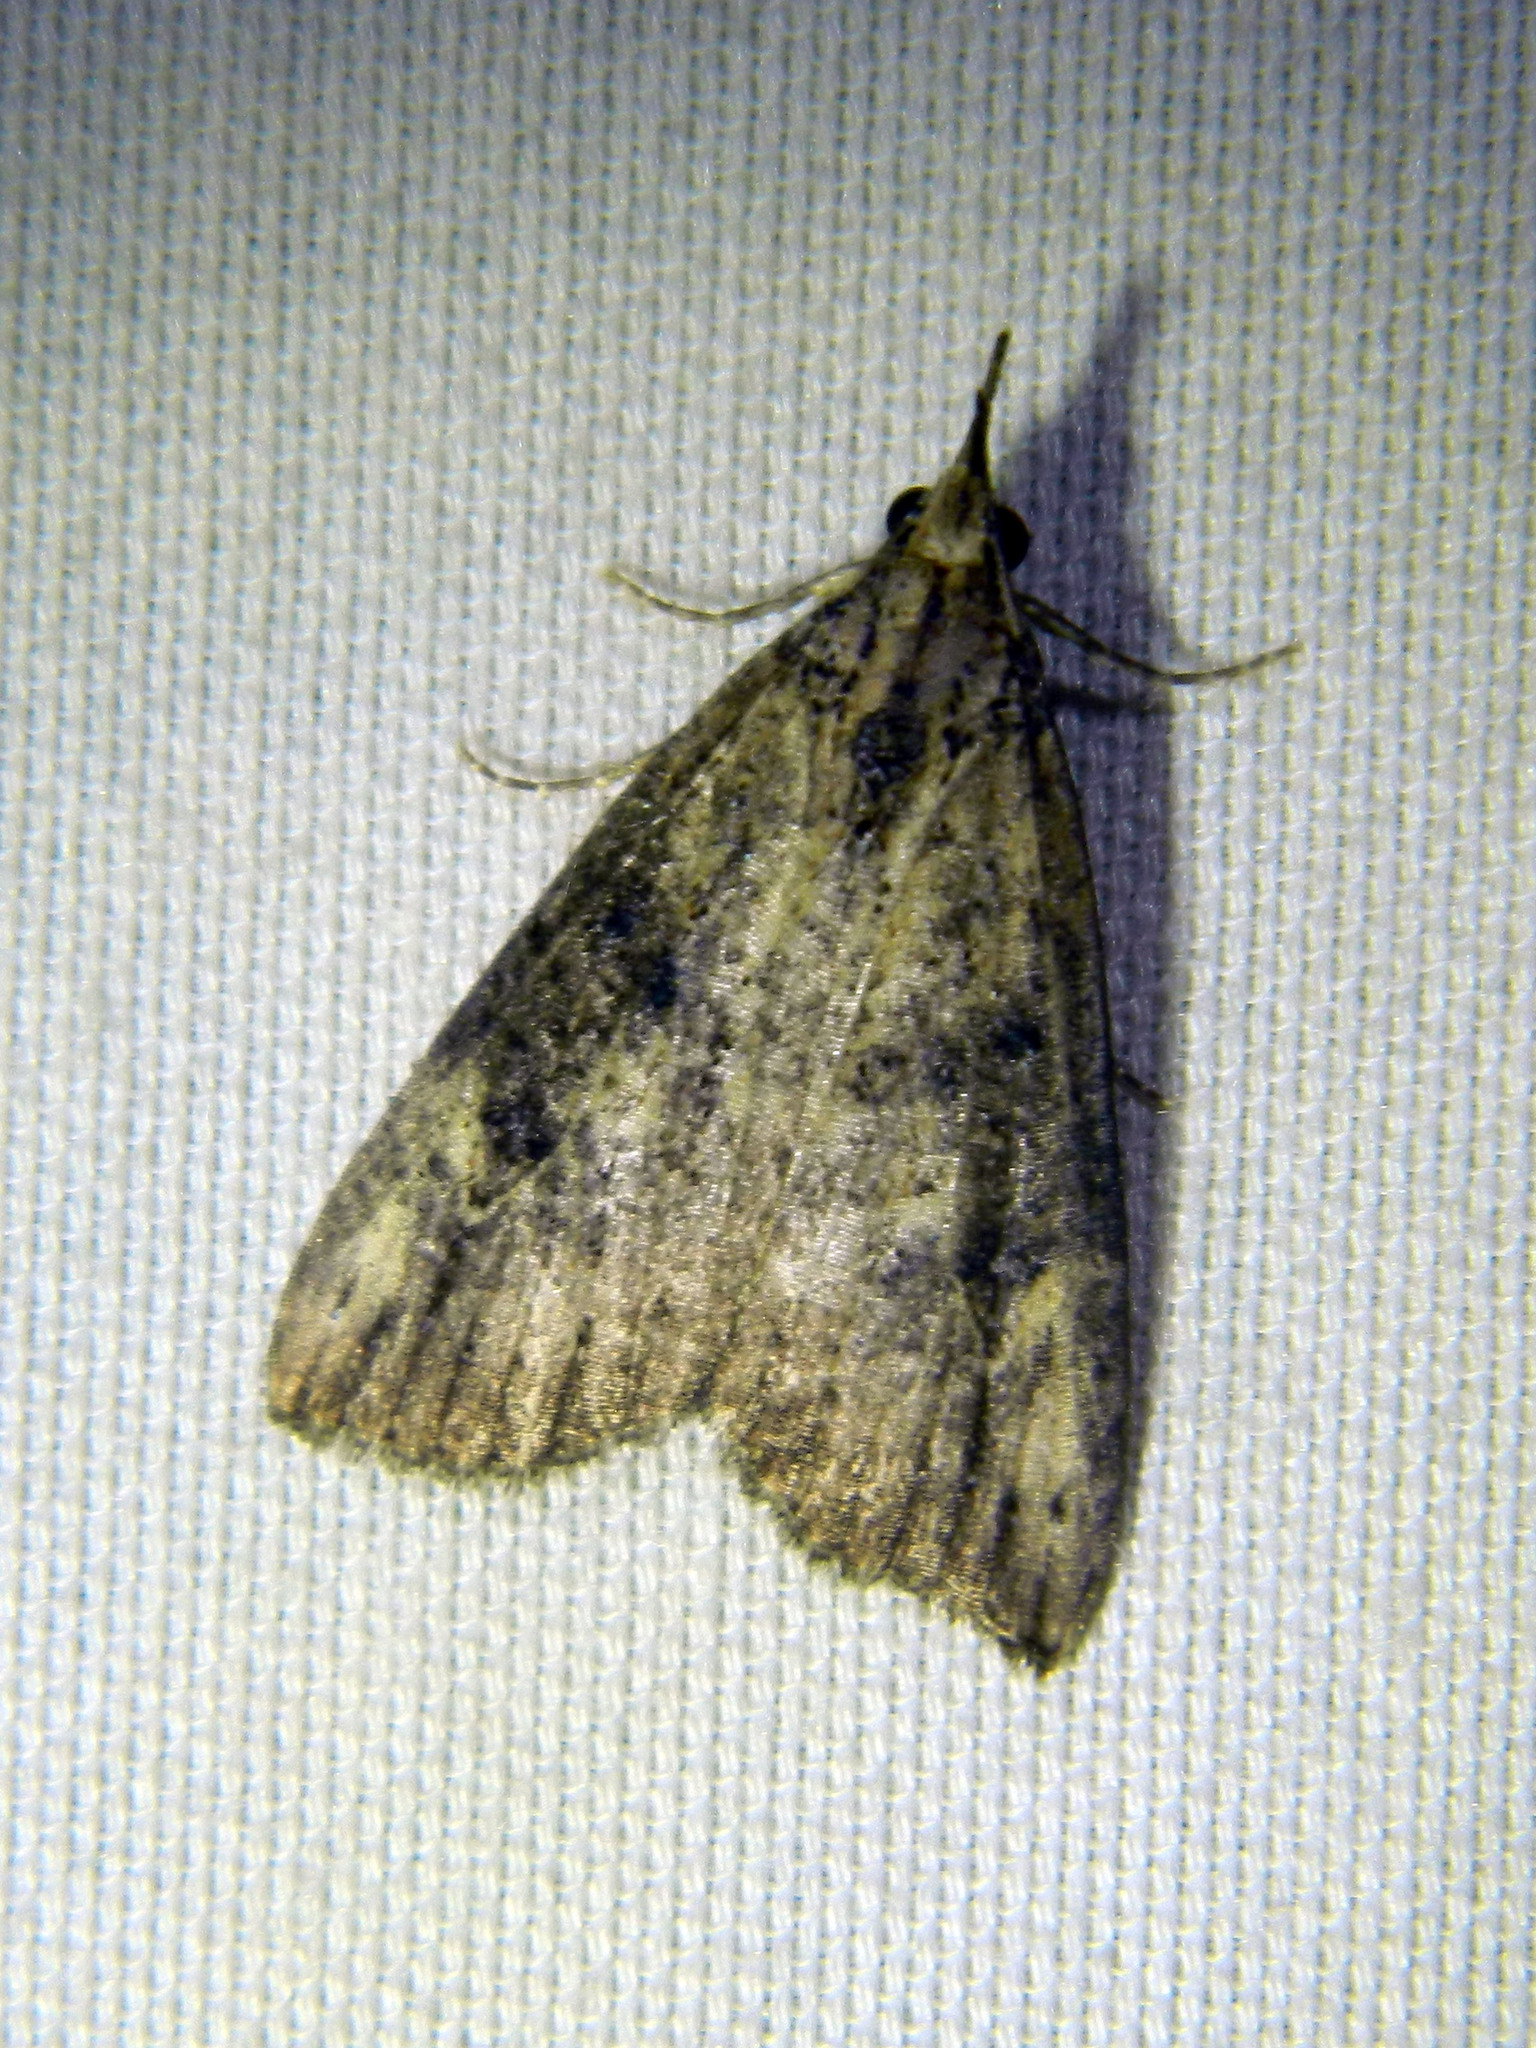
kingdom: Animalia
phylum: Arthropoda
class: Insecta
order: Lepidoptera
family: Erebidae
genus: Hypena
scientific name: Hypena humuli
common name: Hop vine snout
